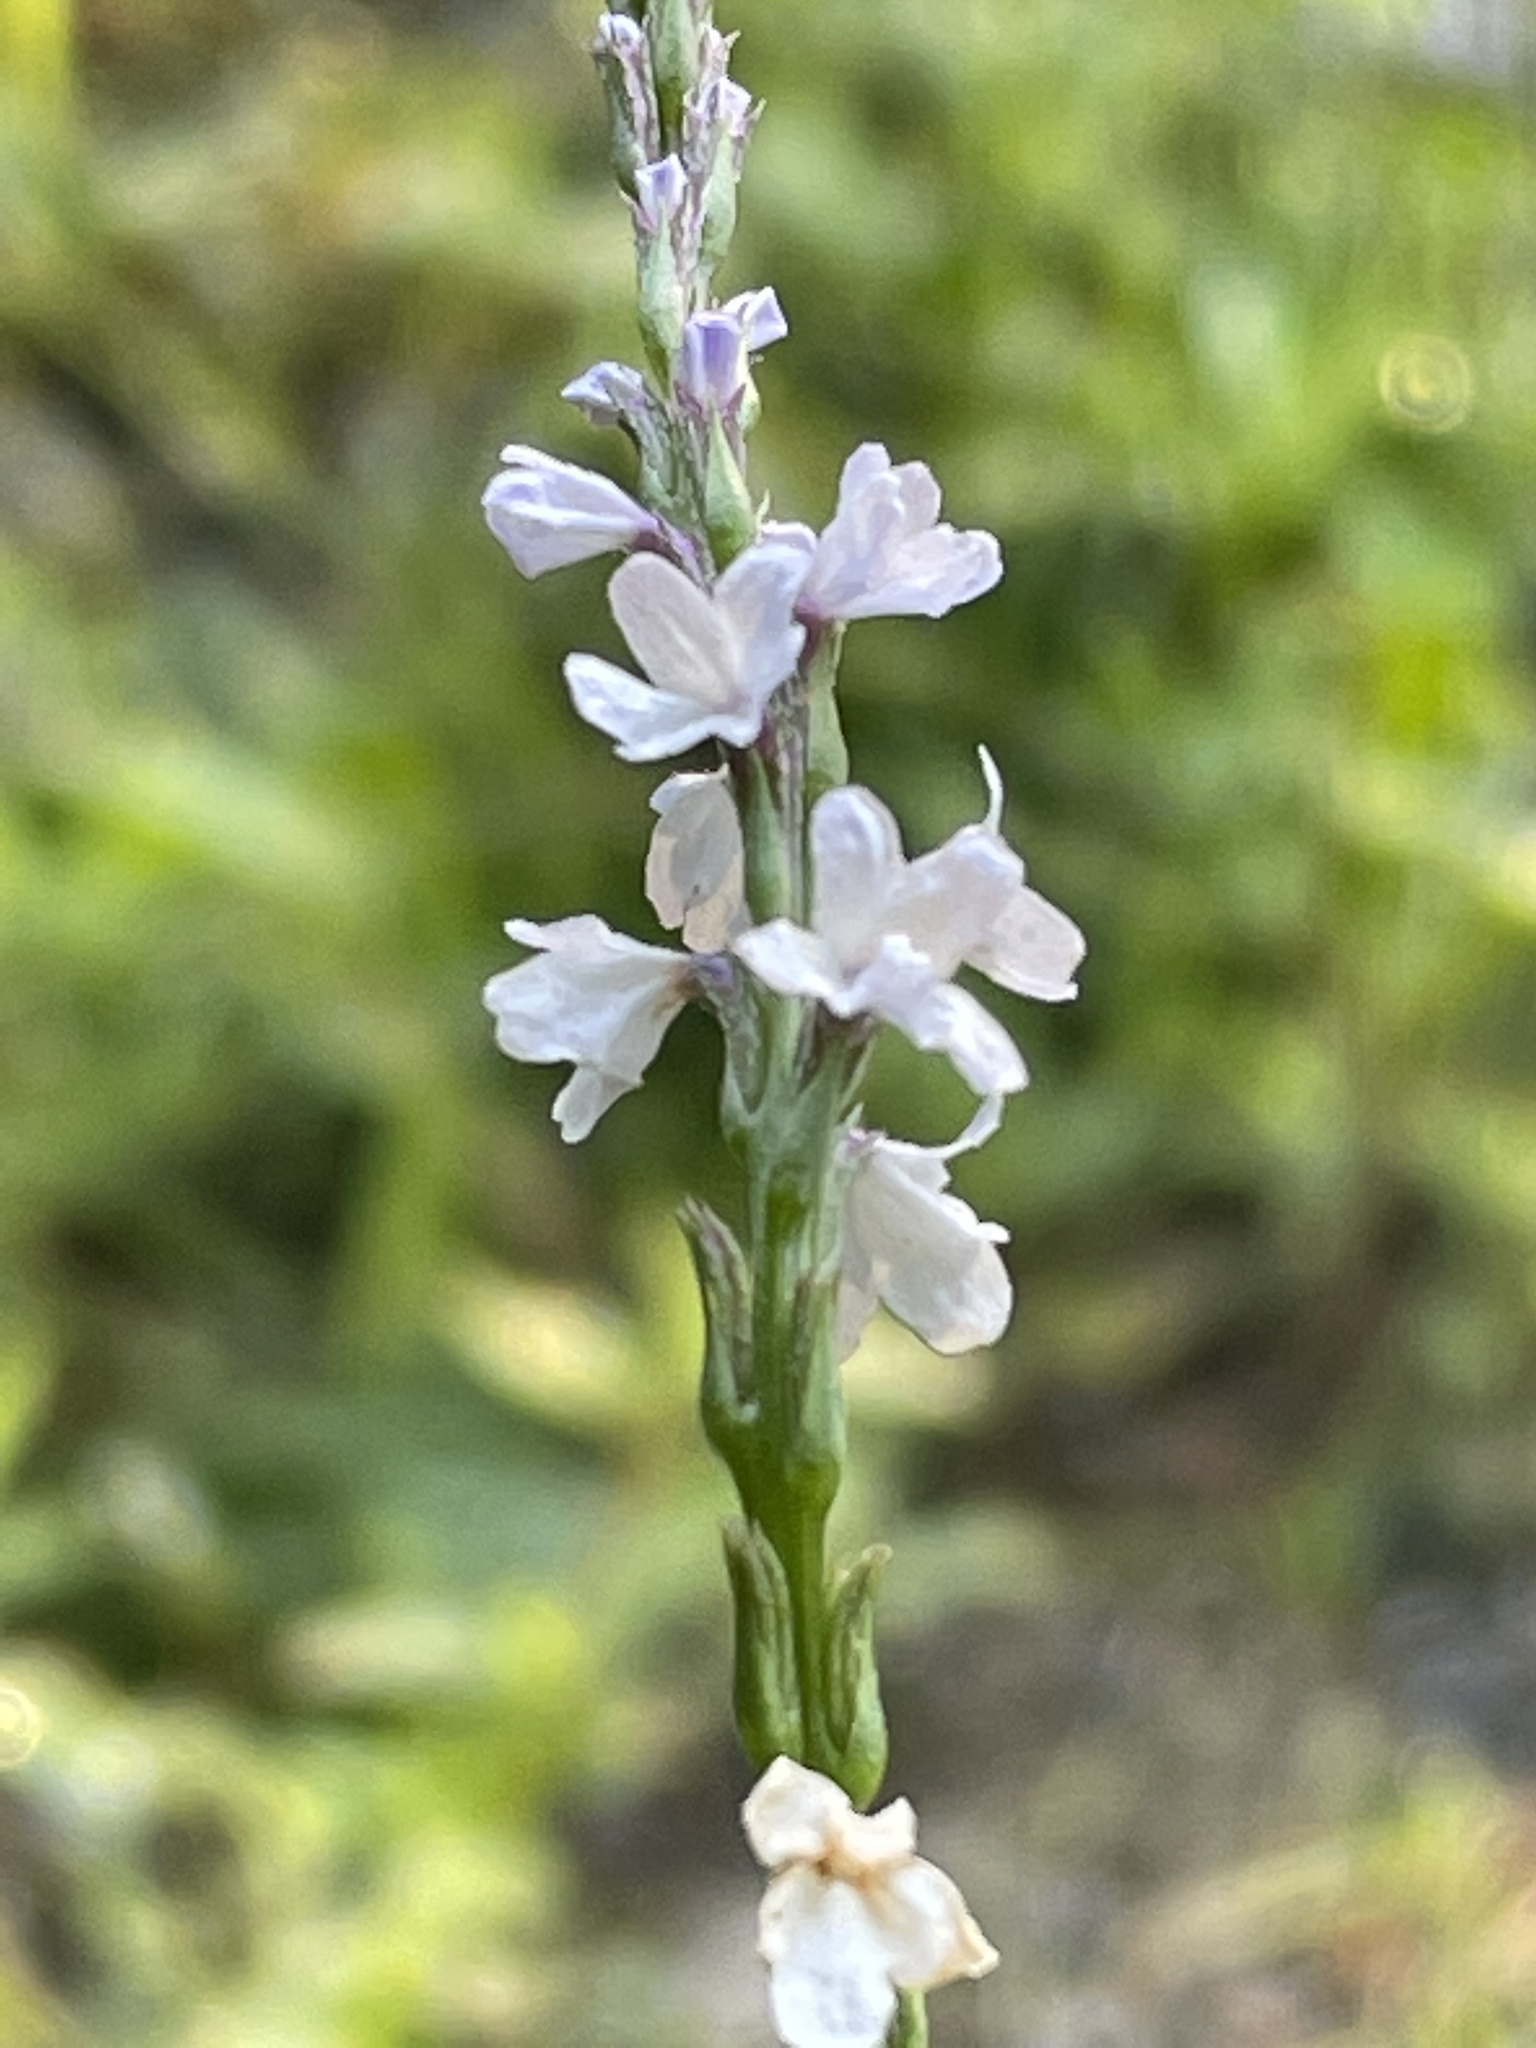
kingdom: Plantae
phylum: Tracheophyta
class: Magnoliopsida
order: Lamiales
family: Verbenaceae
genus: Verbena
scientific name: Verbena simplex
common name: Narrow-leaf vervain
